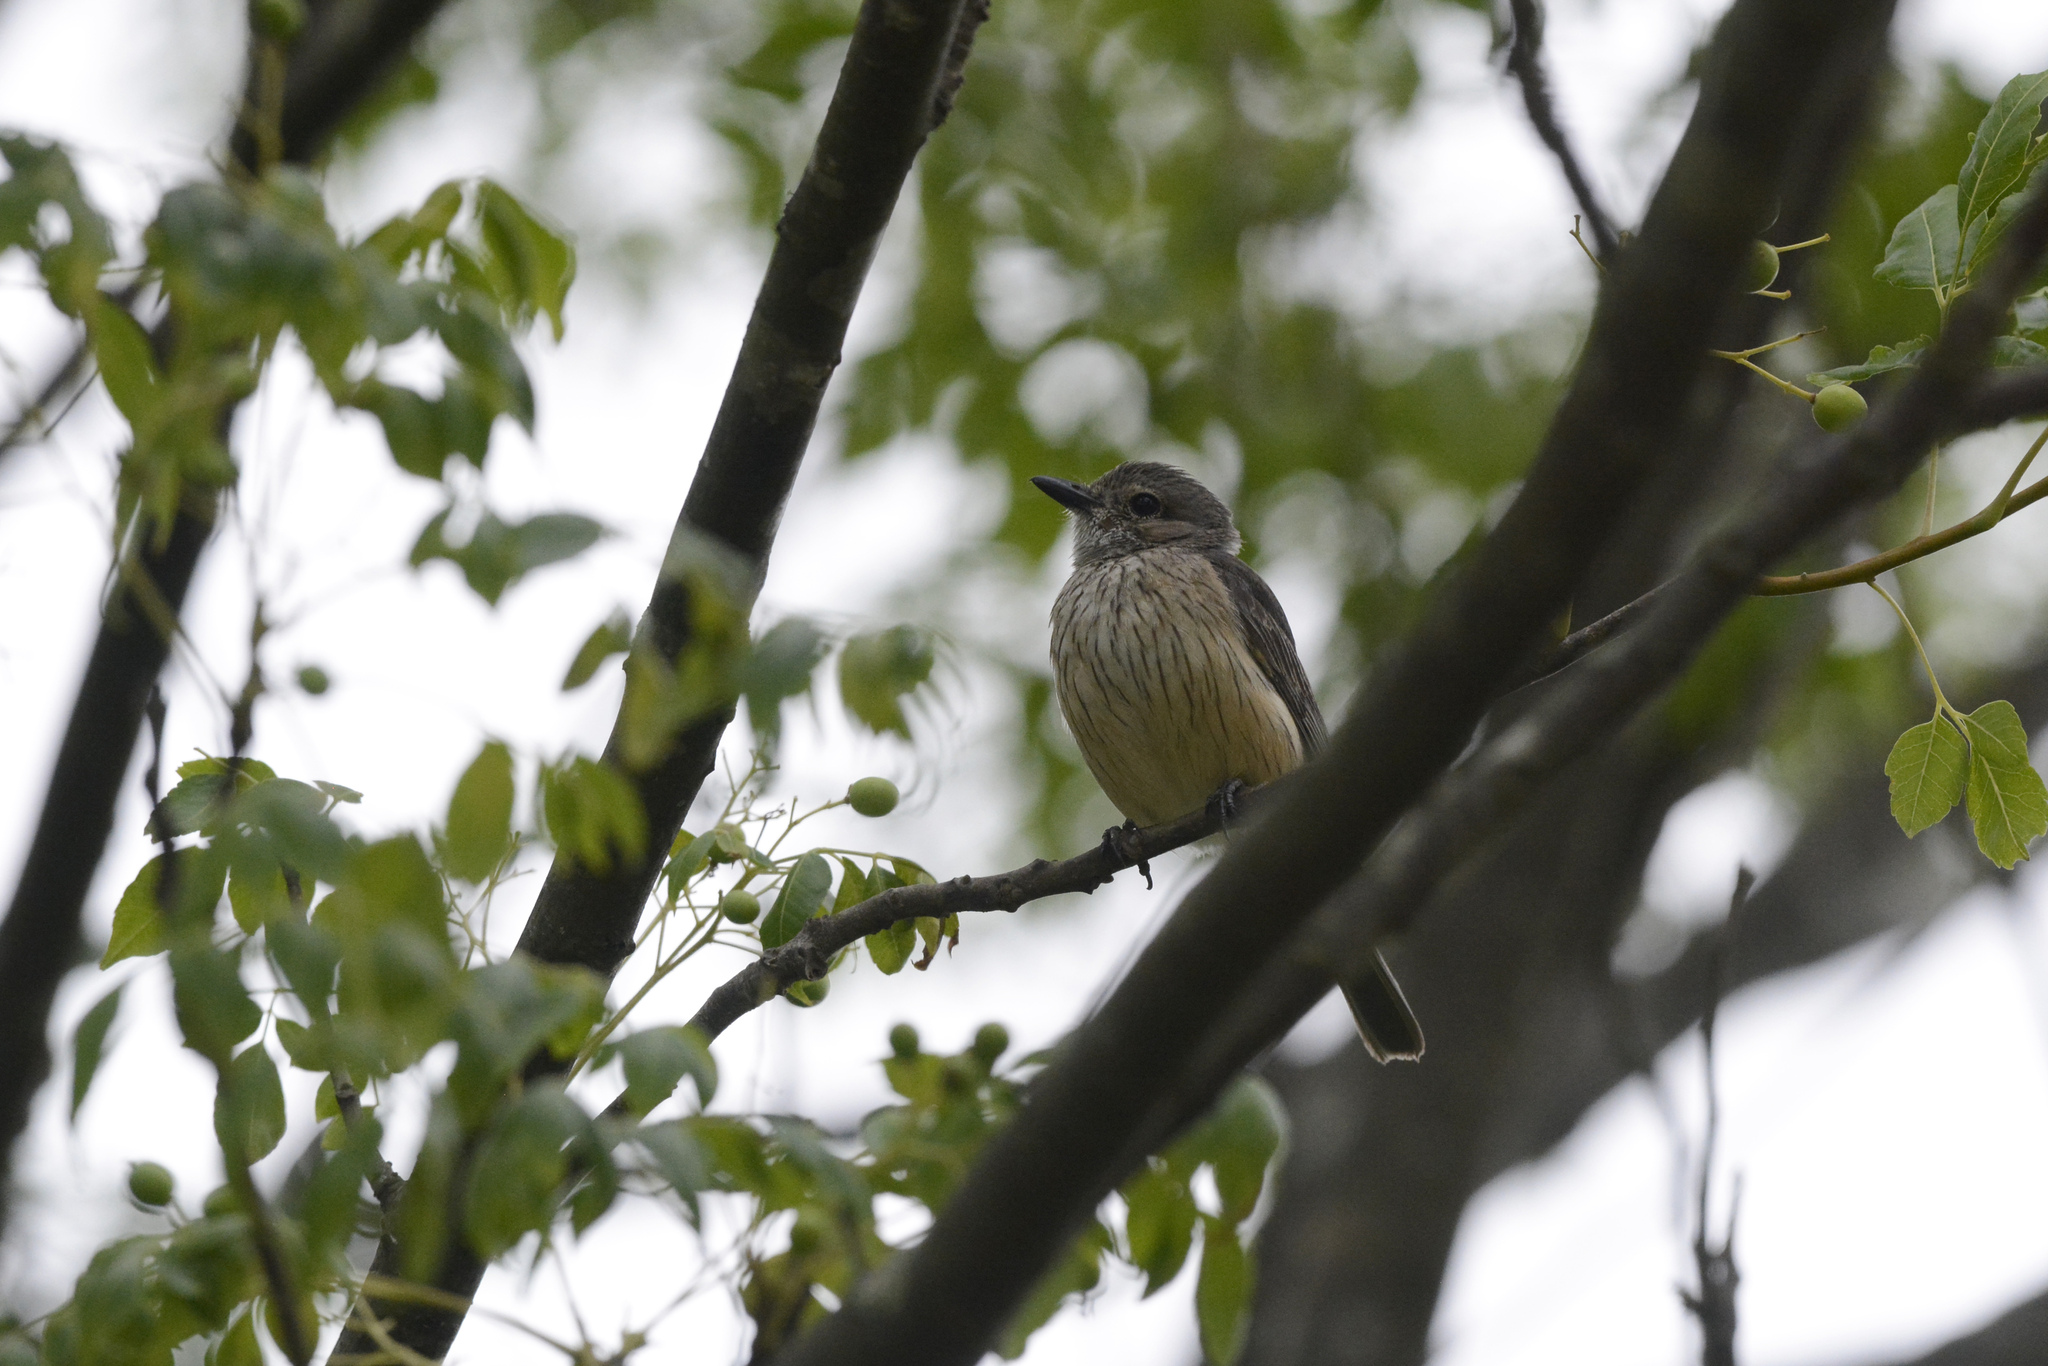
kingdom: Animalia
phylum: Chordata
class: Aves
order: Passeriformes
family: Pachycephalidae
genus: Pachycephala
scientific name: Pachycephala rufiventris
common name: Rufous whistler
